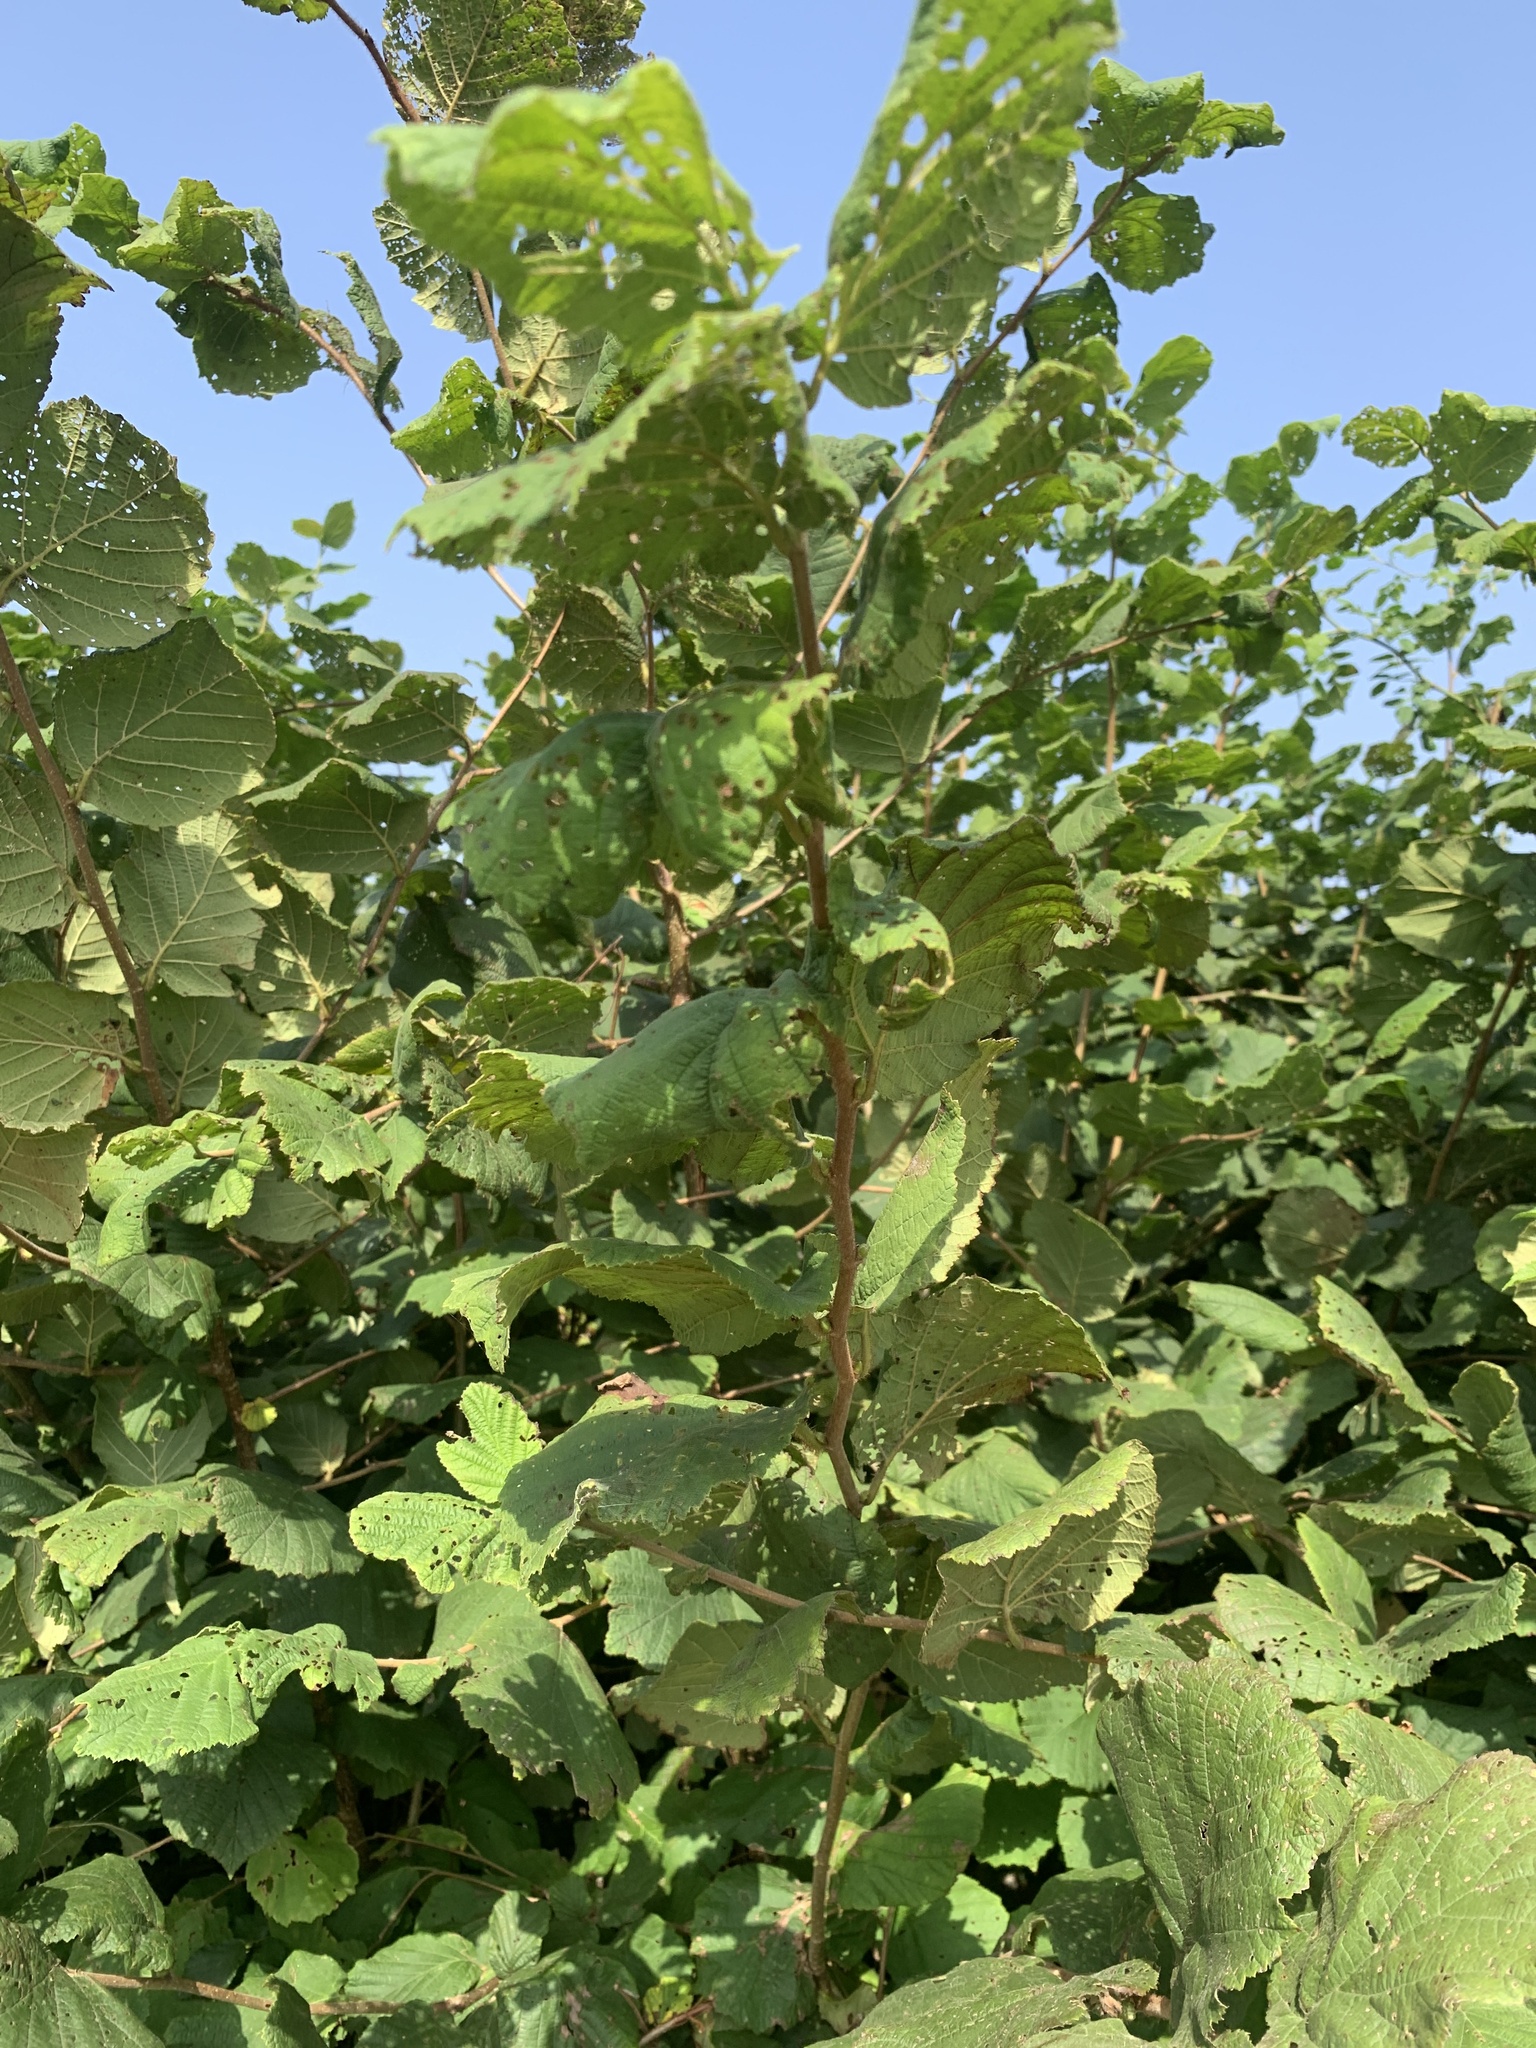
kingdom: Plantae
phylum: Tracheophyta
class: Magnoliopsida
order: Fagales
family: Betulaceae
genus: Corylus
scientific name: Corylus avellana
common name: European hazel
